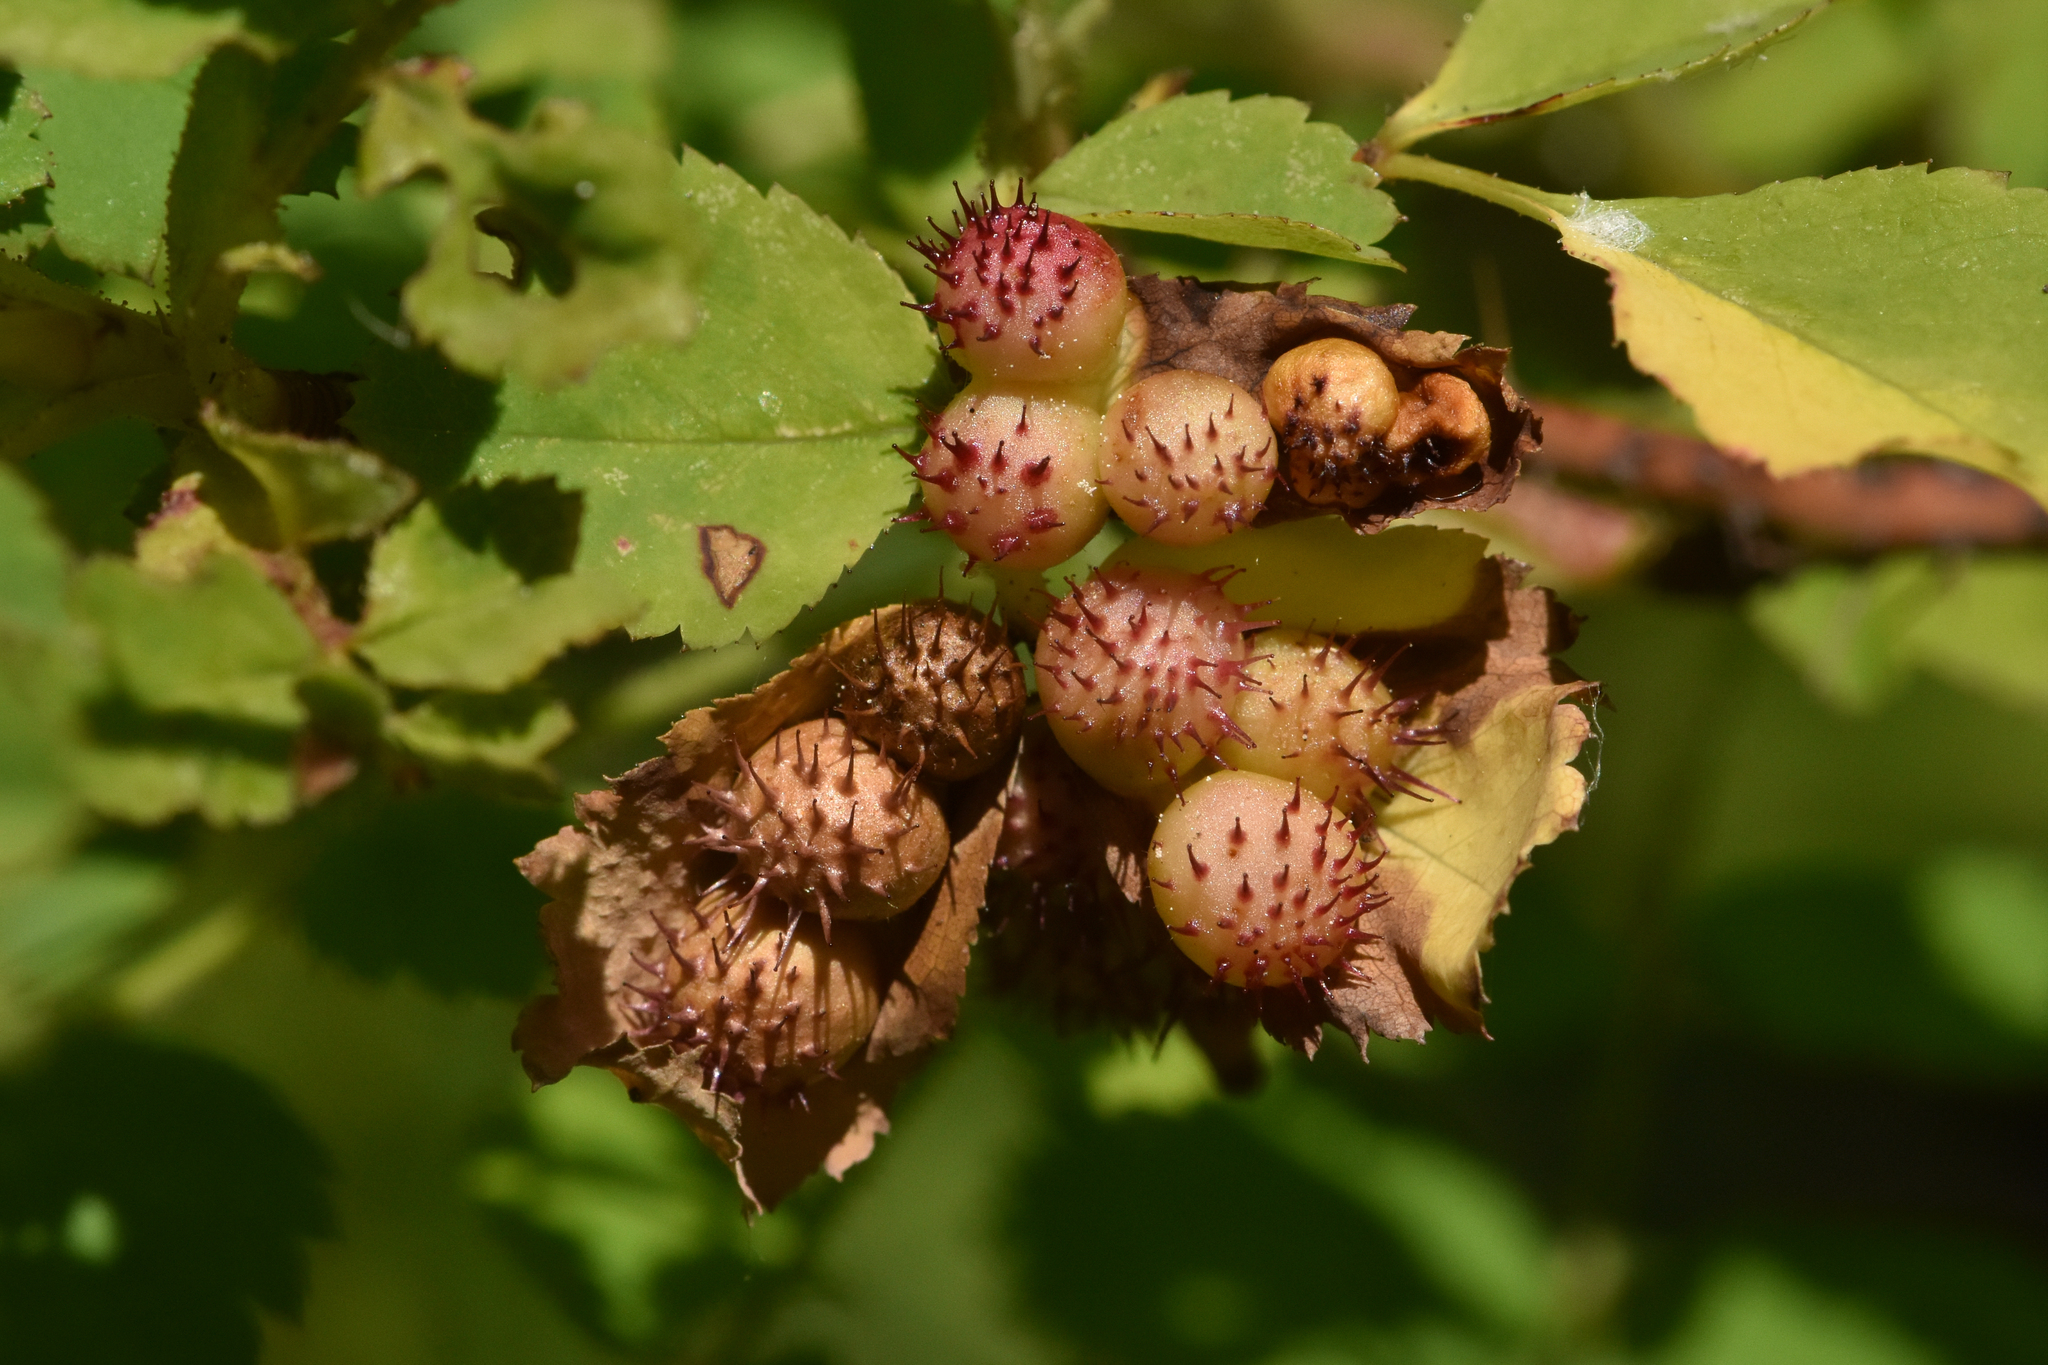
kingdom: Animalia
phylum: Arthropoda
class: Insecta
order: Hymenoptera
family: Cynipidae
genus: Diplolepis
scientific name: Diplolepis polita
